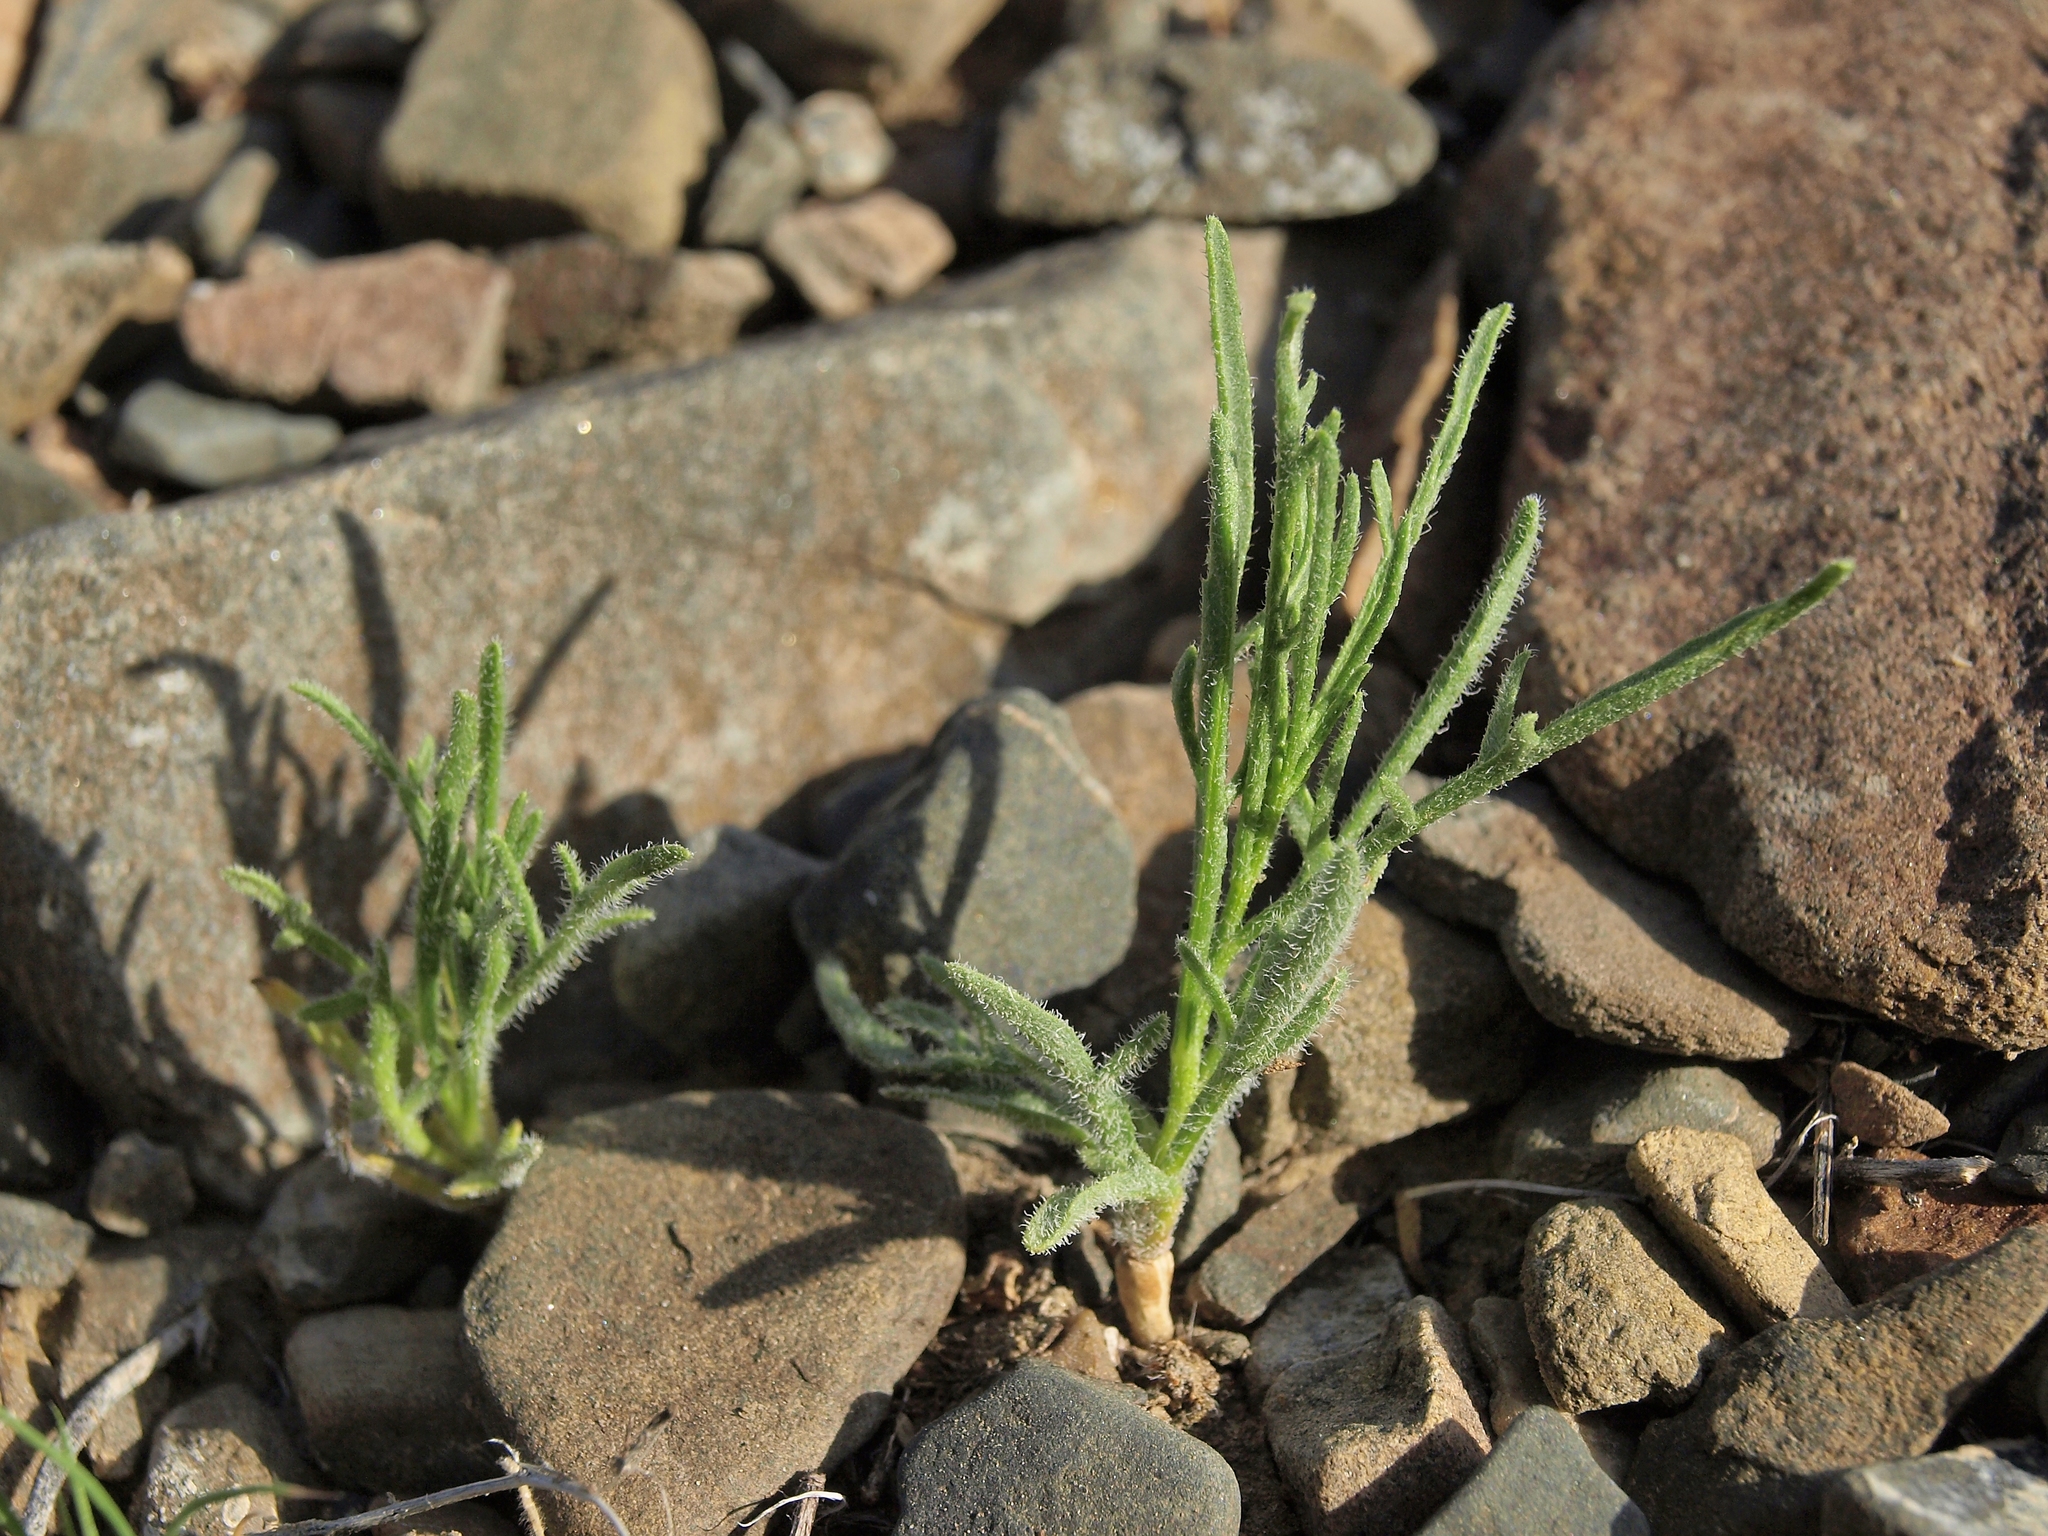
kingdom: Plantae
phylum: Tracheophyta
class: Magnoliopsida
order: Asterales
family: Asteraceae
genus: Ambrosia
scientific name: Ambrosia salsola
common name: Burrobrush
